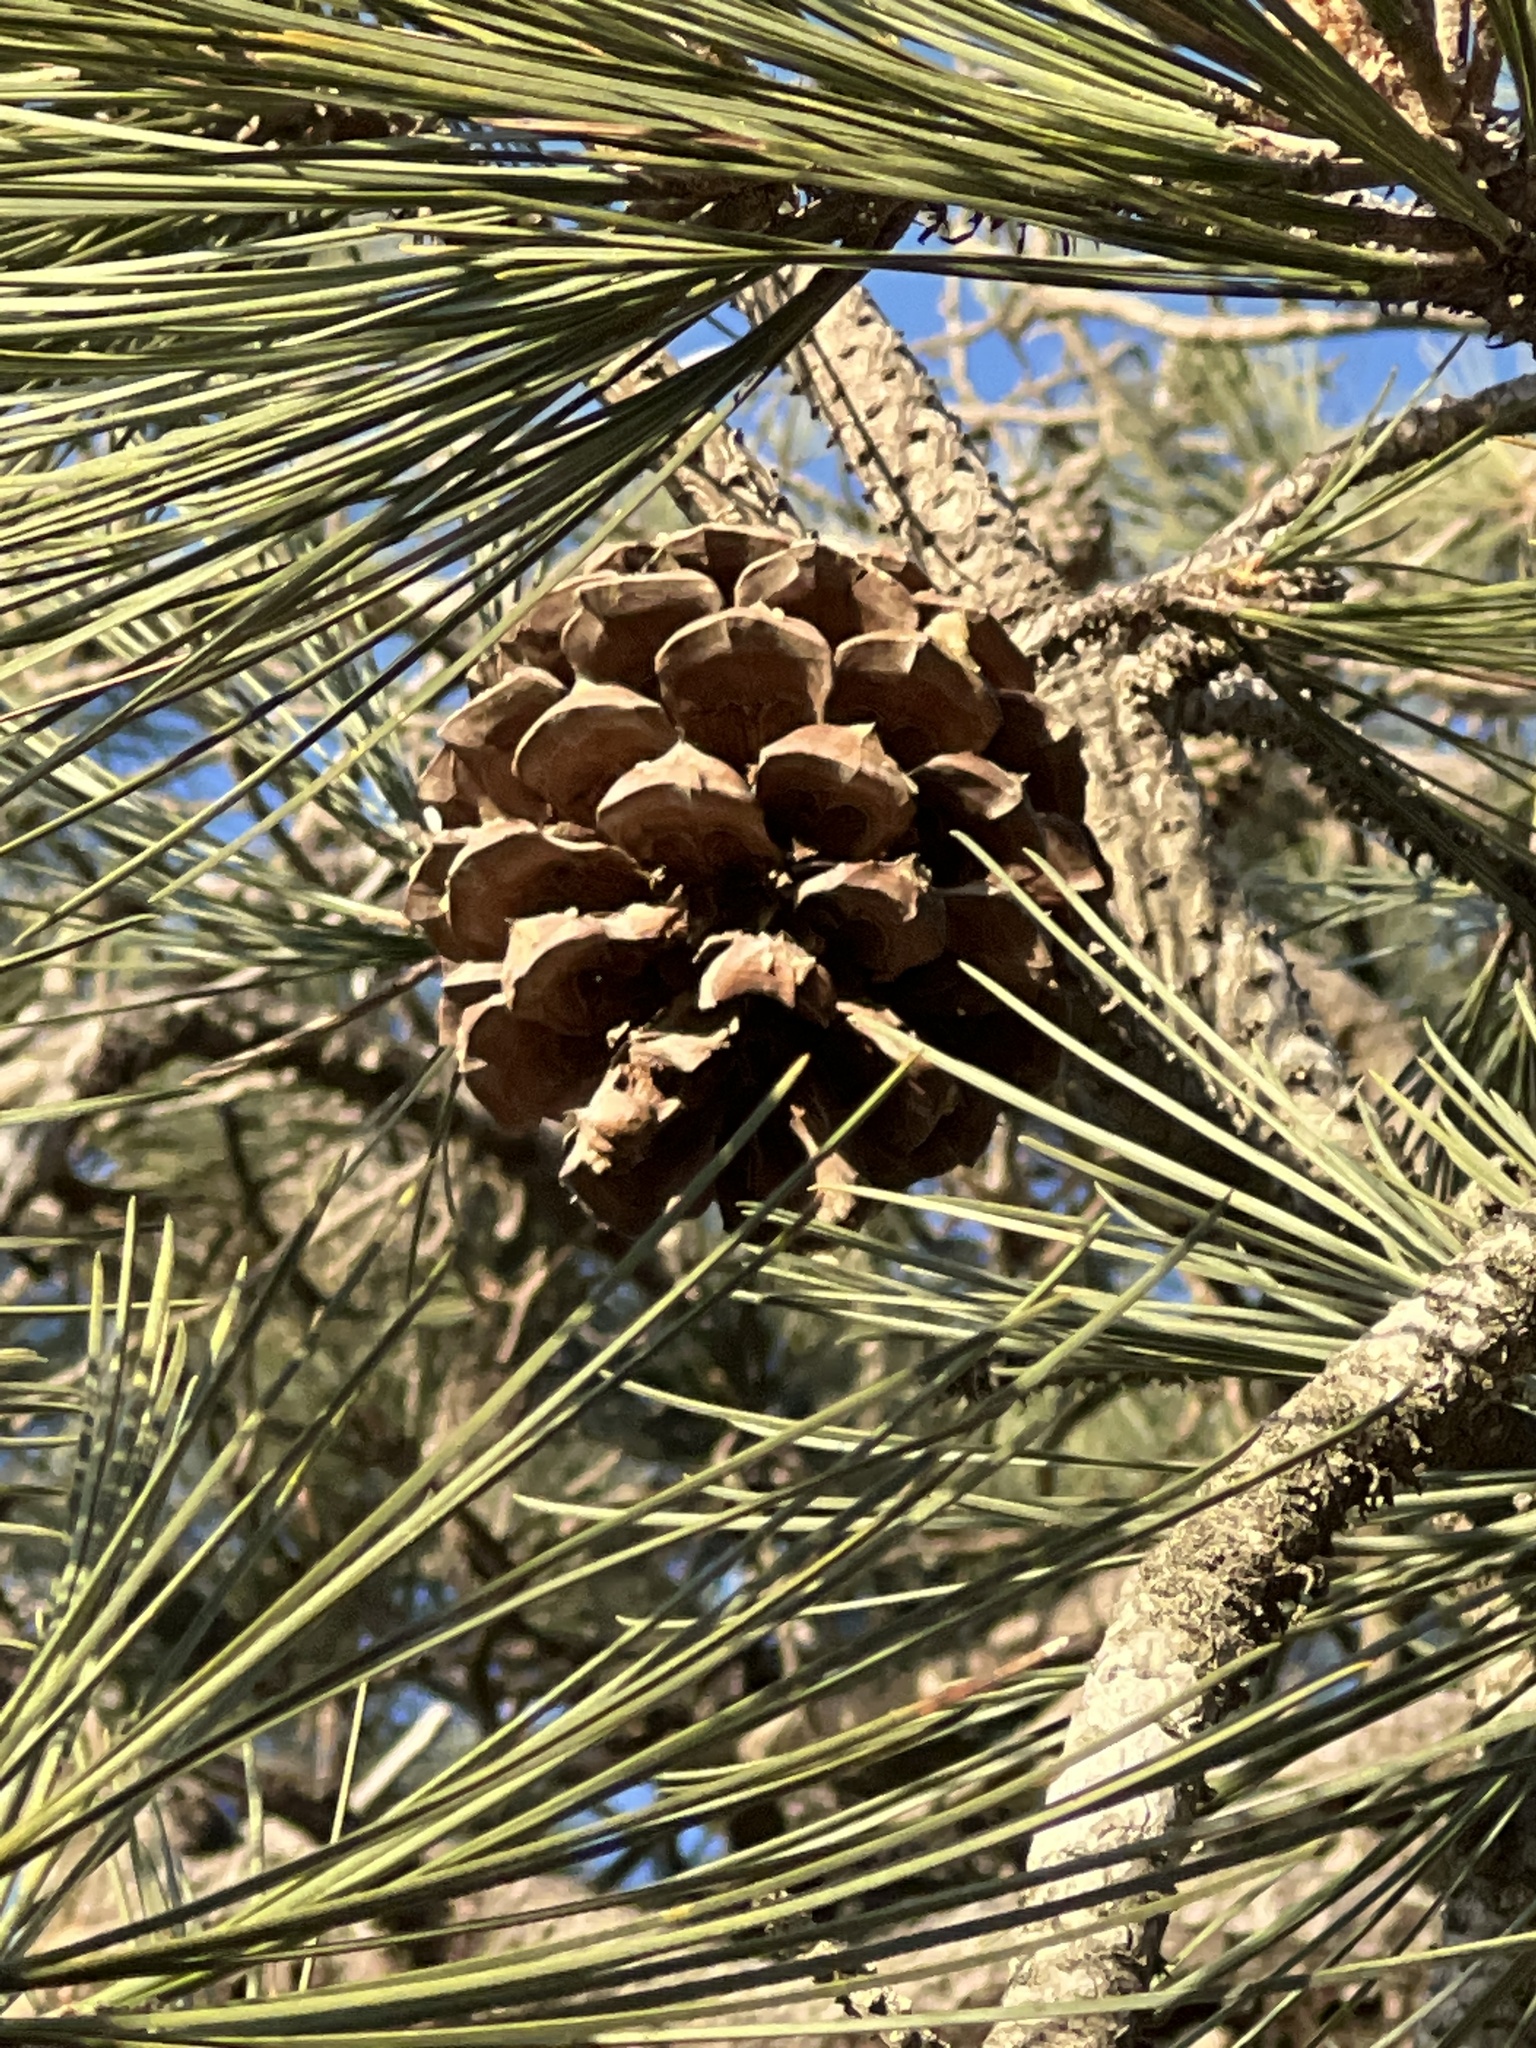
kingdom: Plantae
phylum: Tracheophyta
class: Pinopsida
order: Pinales
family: Pinaceae
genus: Pinus
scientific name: Pinus torreyana
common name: Torrey pine
